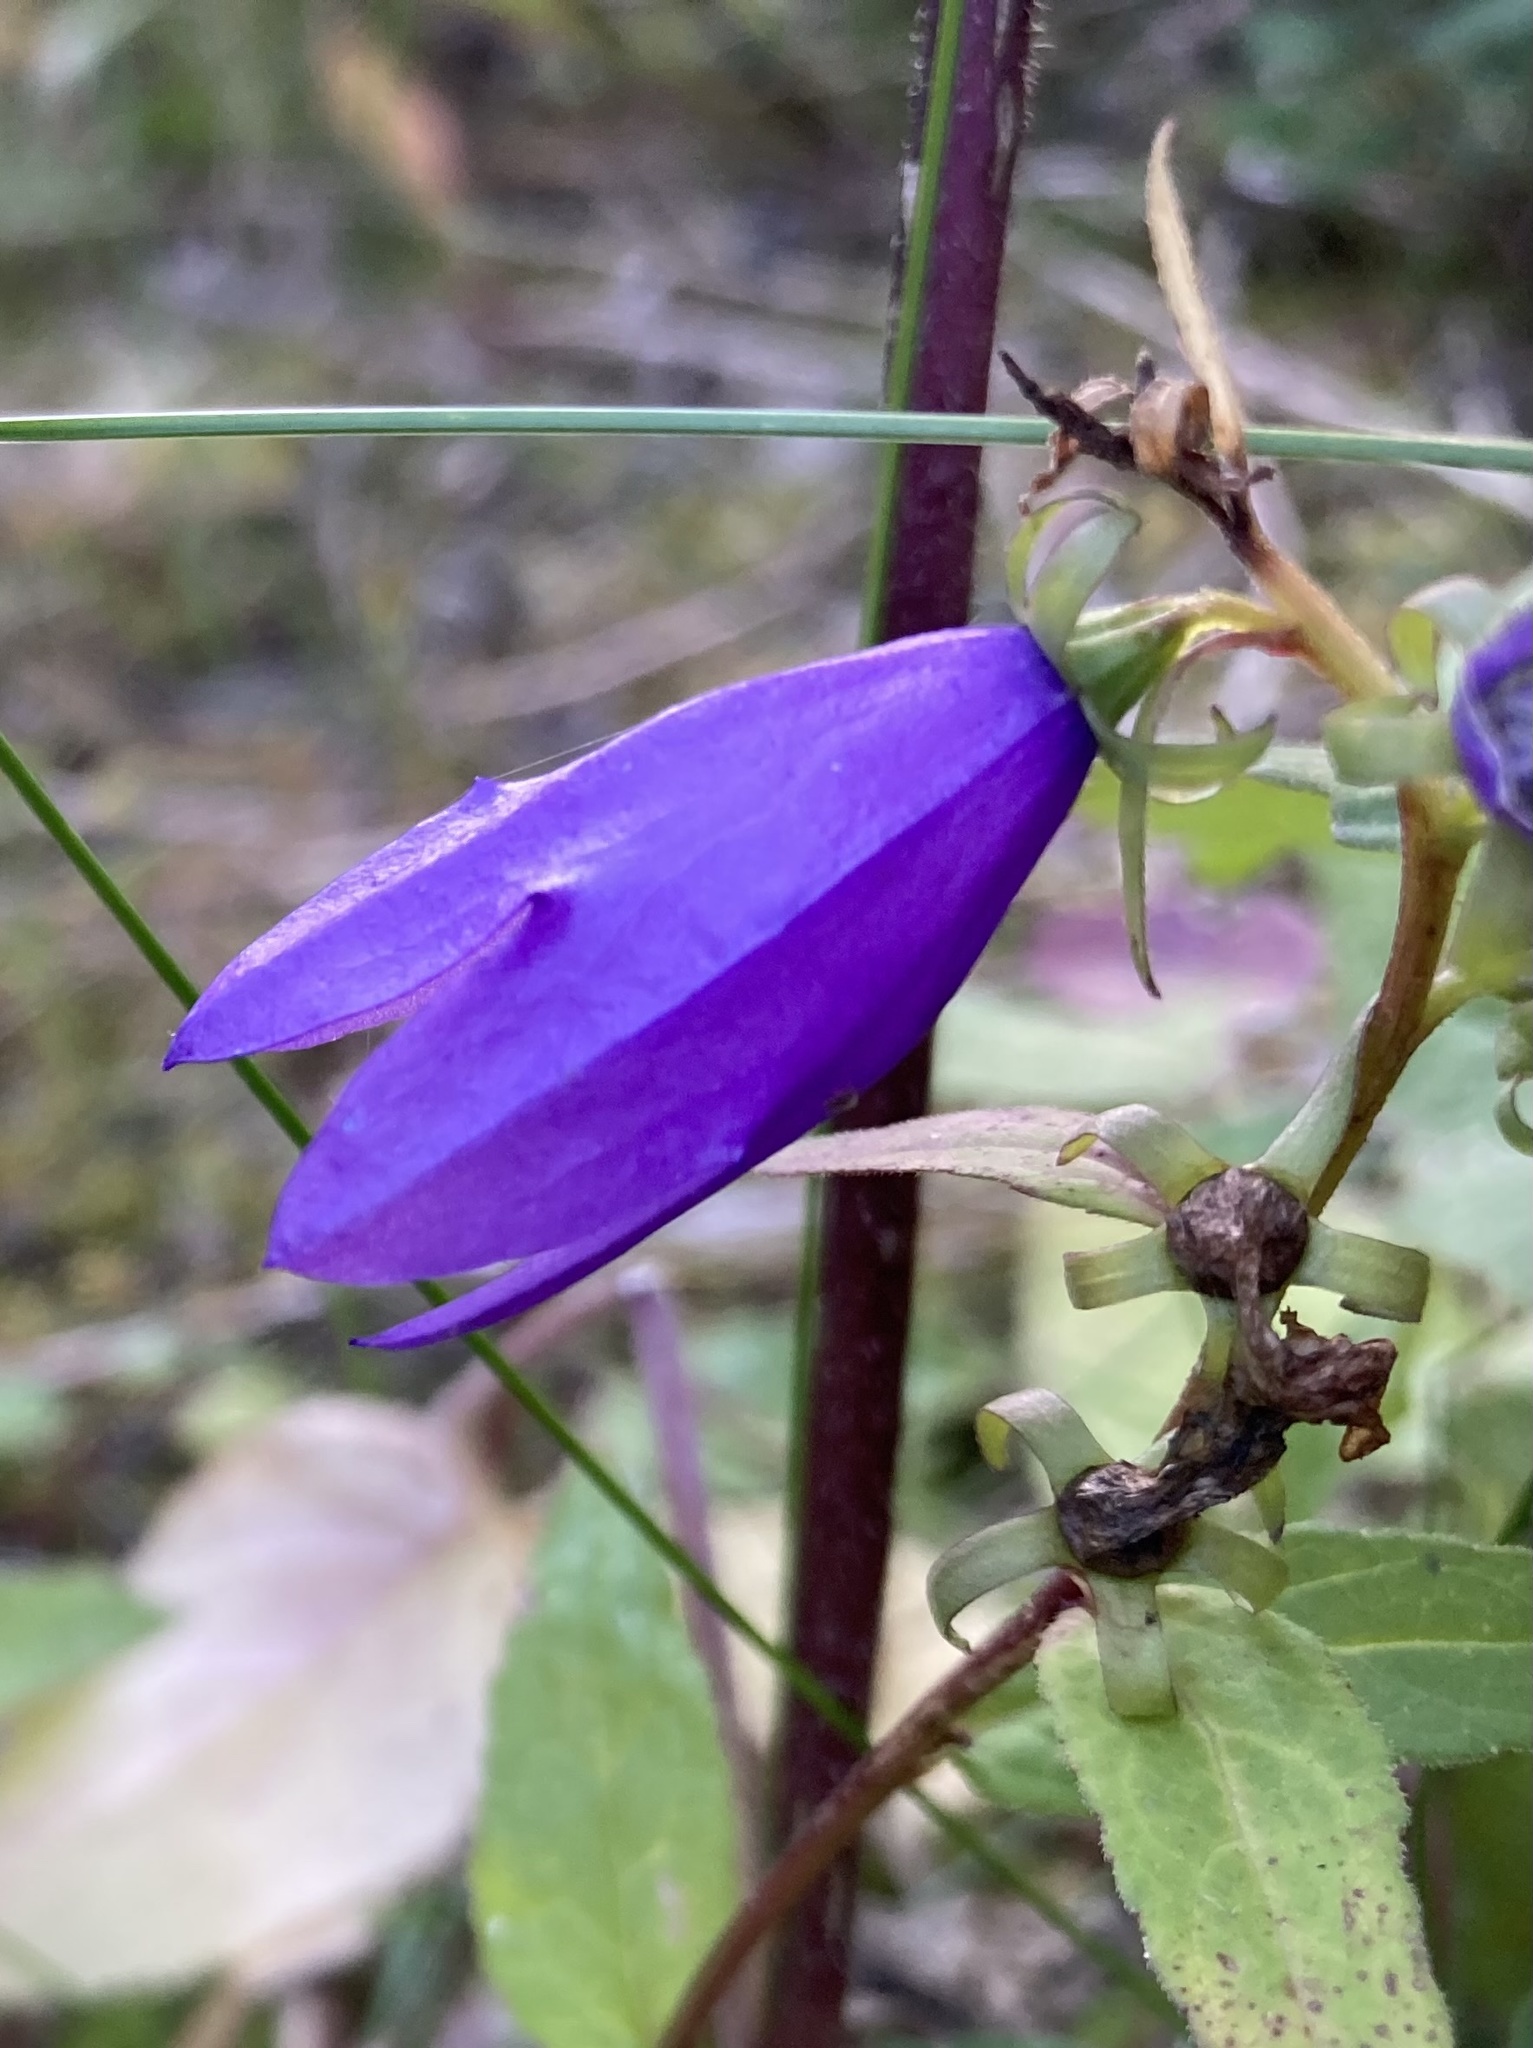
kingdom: Plantae
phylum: Tracheophyta
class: Magnoliopsida
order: Asterales
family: Campanulaceae
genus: Campanula
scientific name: Campanula rapunculoides
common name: Creeping bellflower
